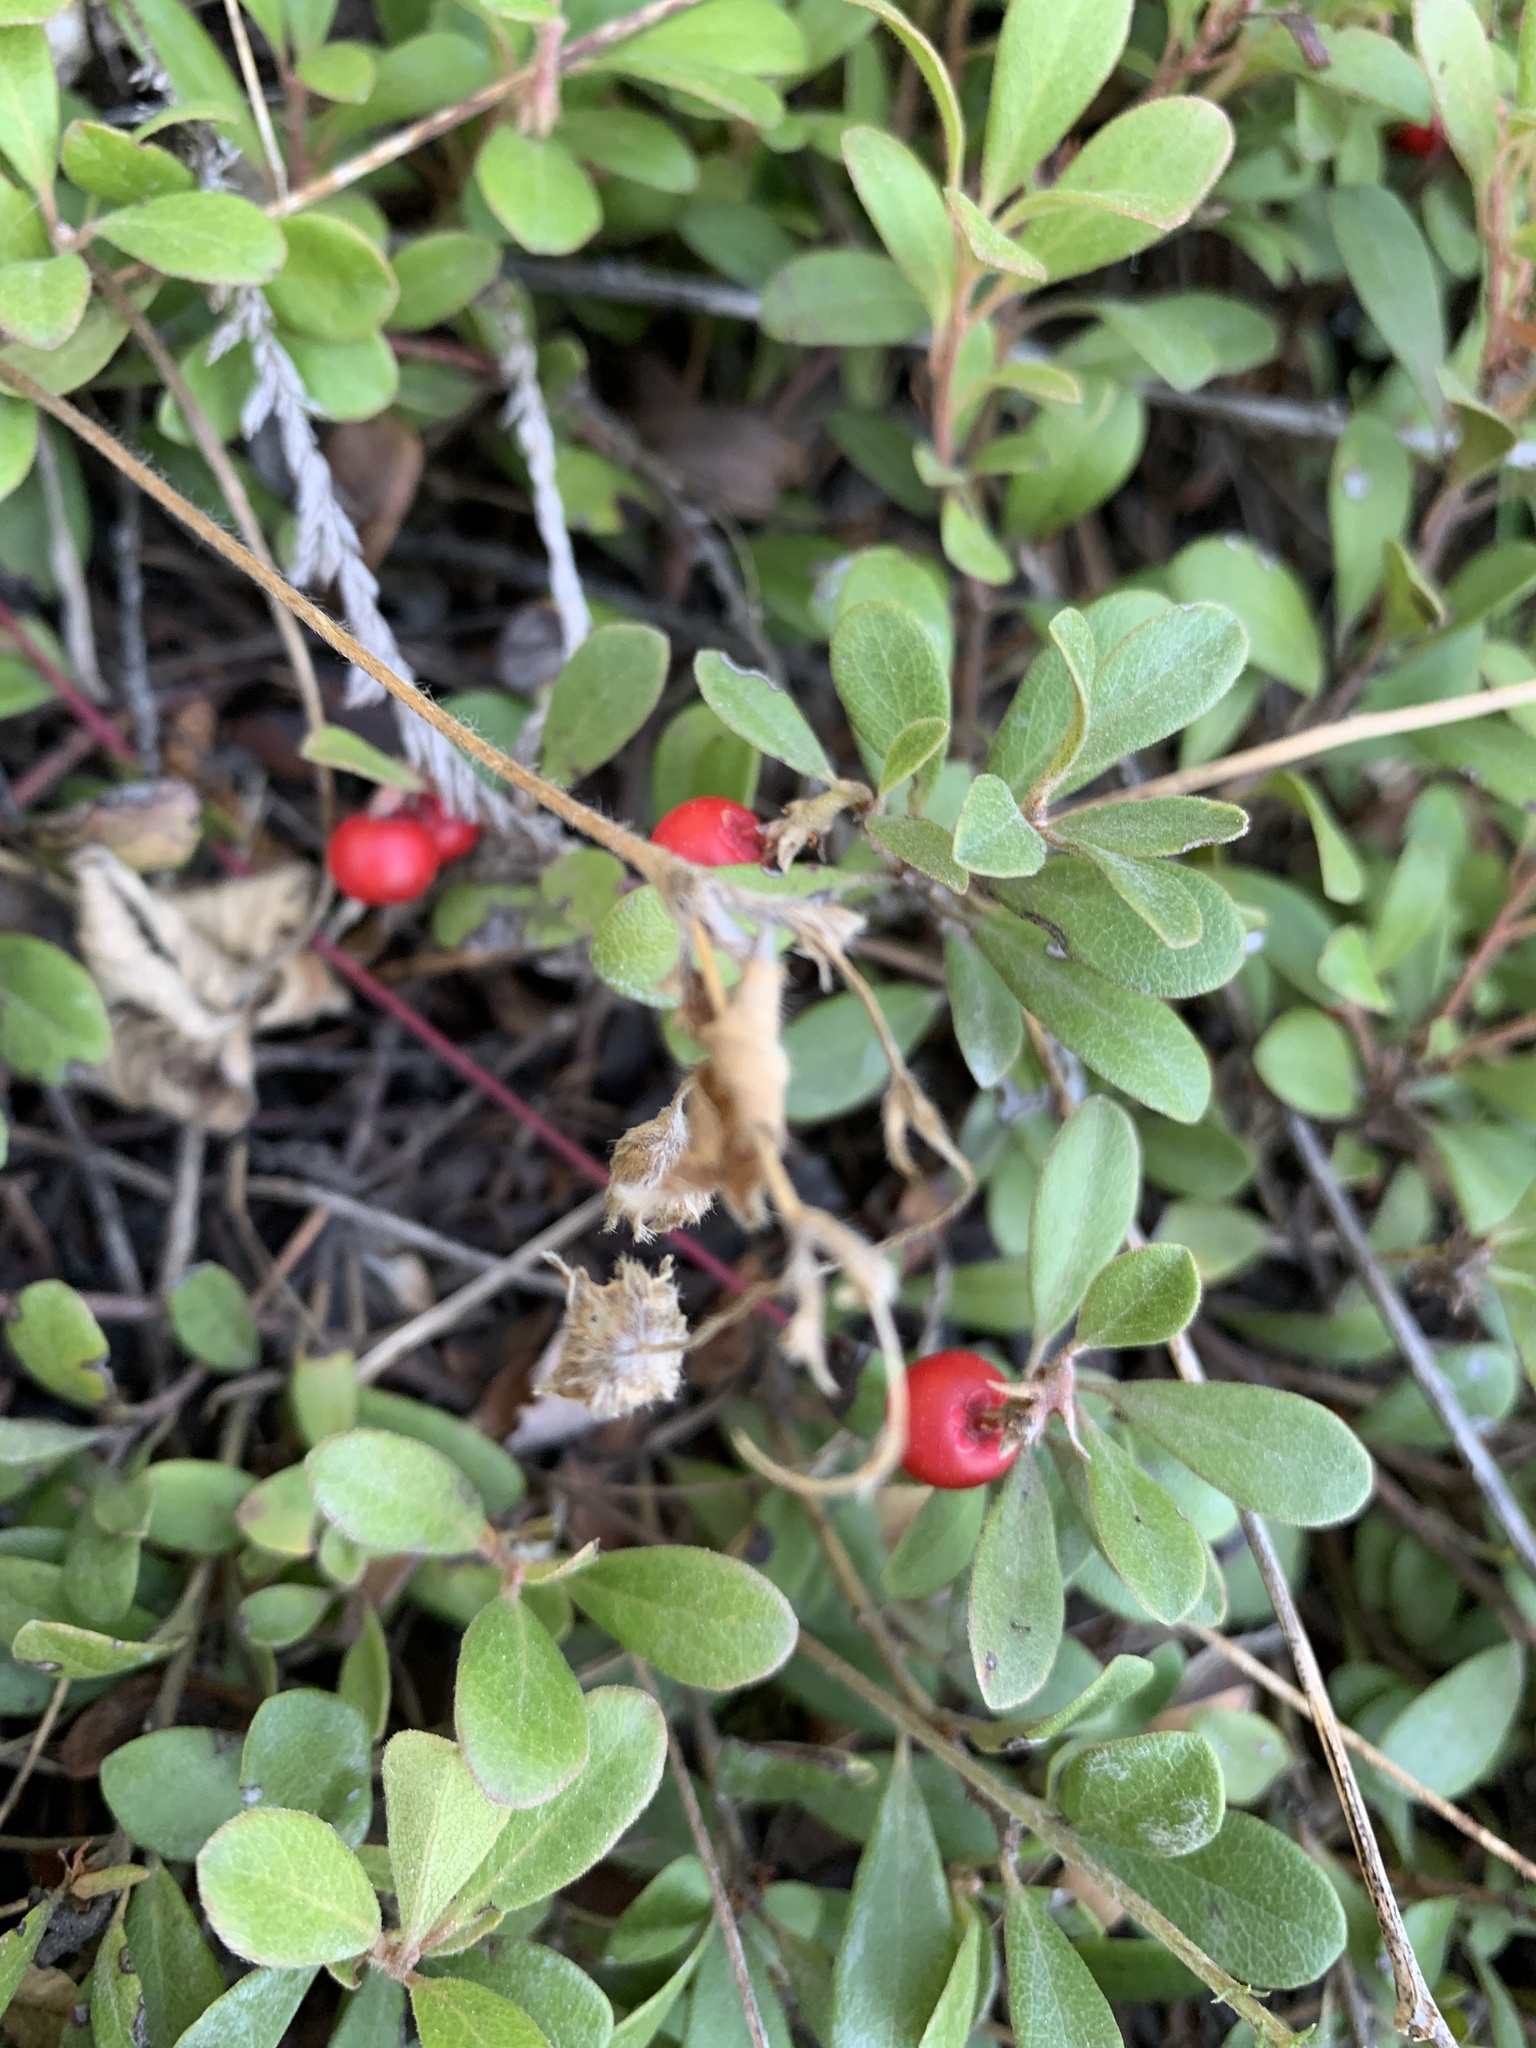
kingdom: Plantae
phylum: Tracheophyta
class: Magnoliopsida
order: Ericales
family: Ericaceae
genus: Arctostaphylos
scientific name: Arctostaphylos uva-ursi
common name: Bearberry
